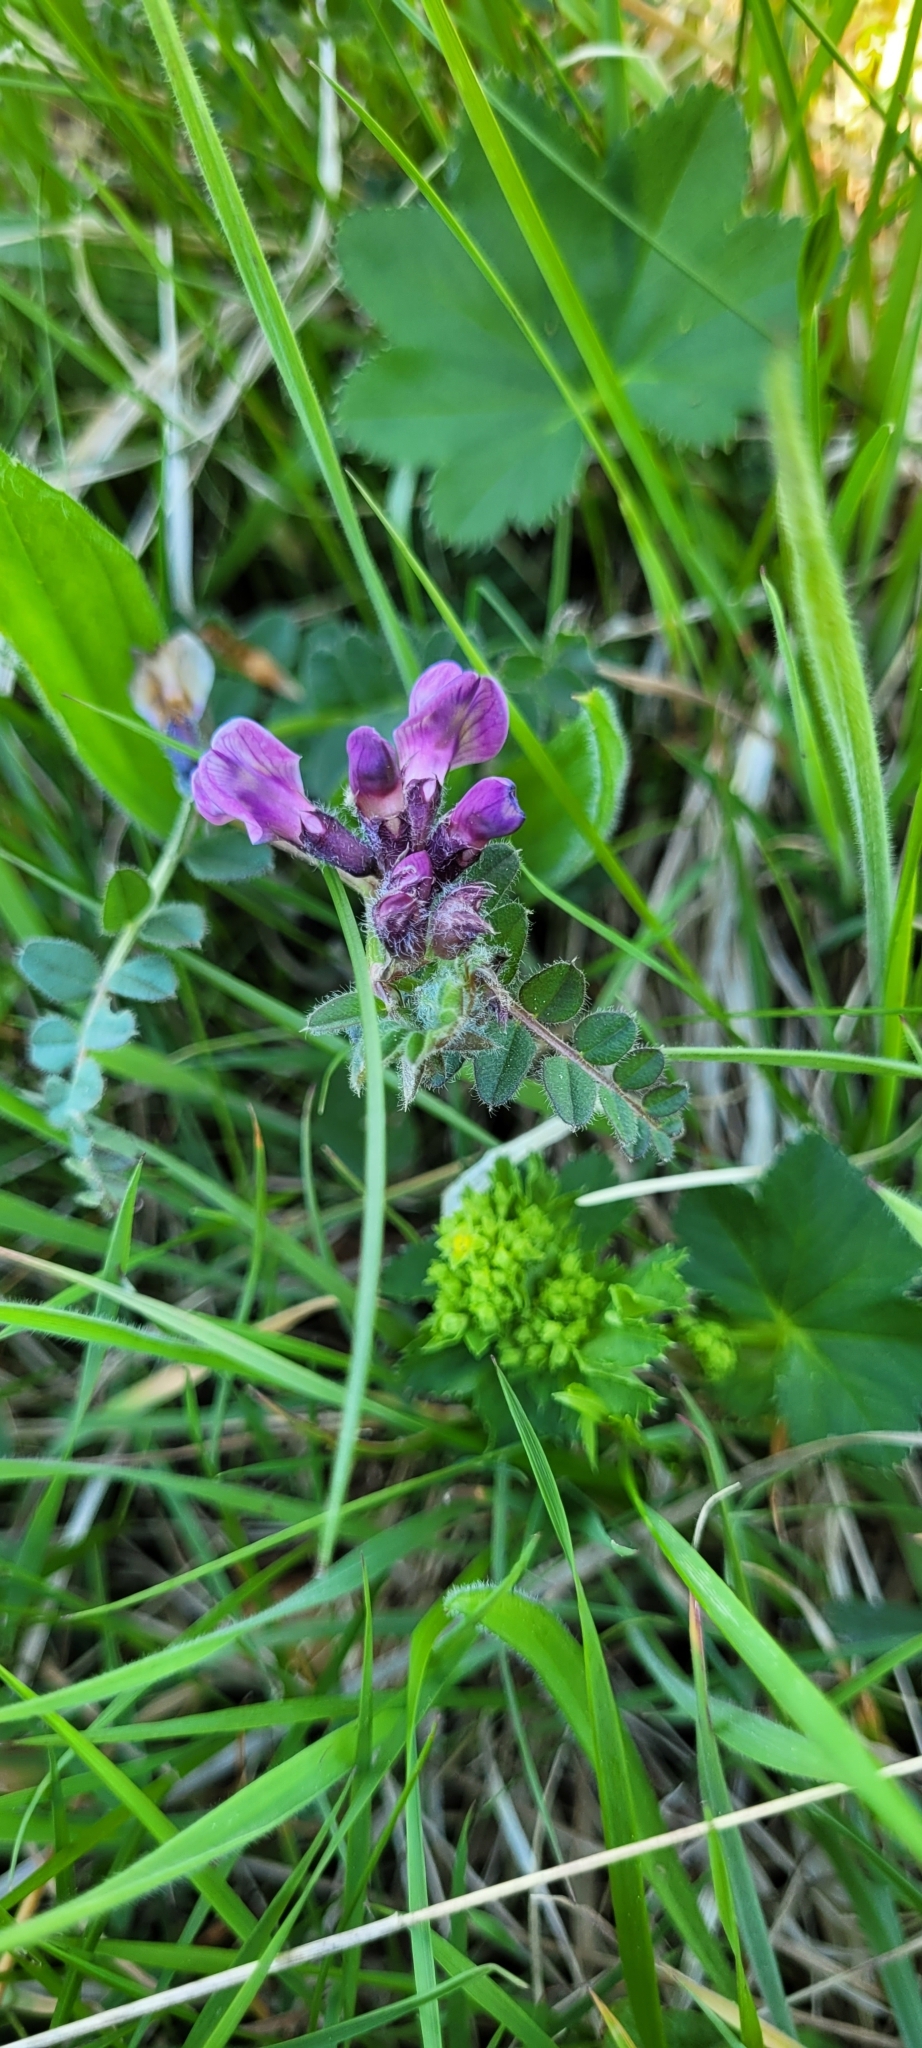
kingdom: Plantae
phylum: Tracheophyta
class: Magnoliopsida
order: Fabales
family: Fabaceae
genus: Vicia
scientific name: Vicia sepium
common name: Bush vetch
